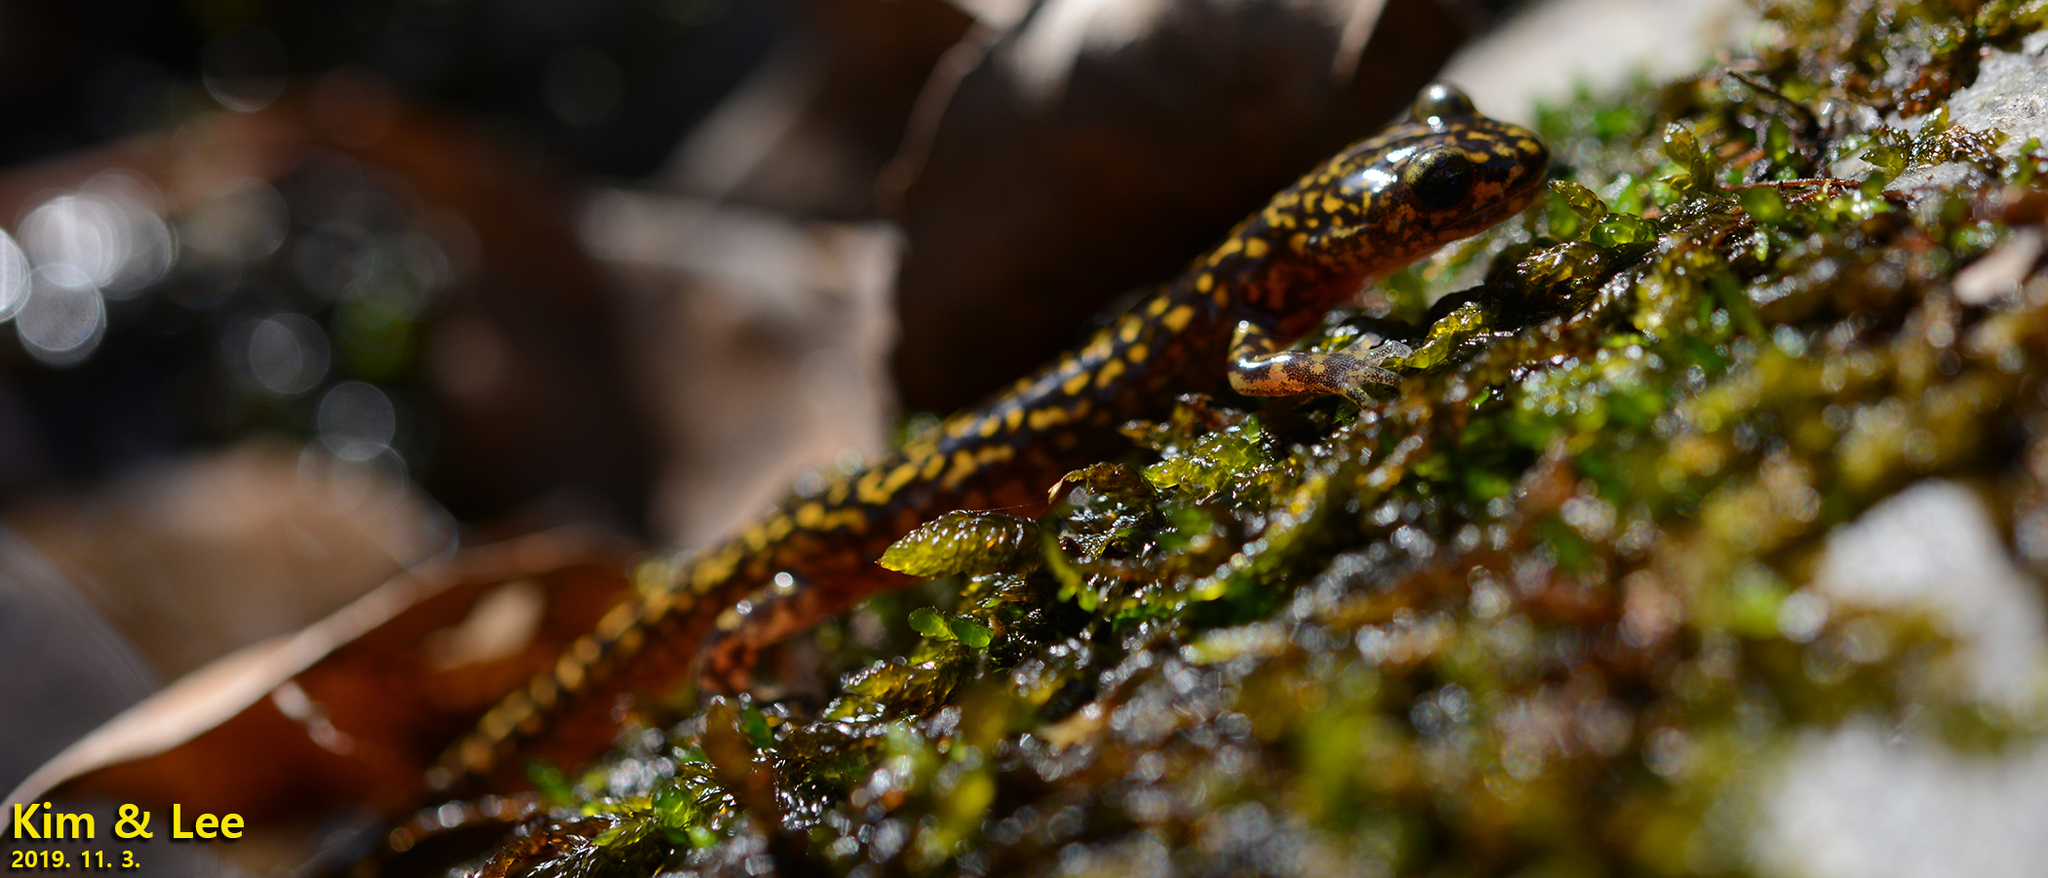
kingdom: Animalia
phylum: Chordata
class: Amphibia
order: Caudata
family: Hynobiidae
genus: Onychodactylus
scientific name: Onychodactylus koreanus
